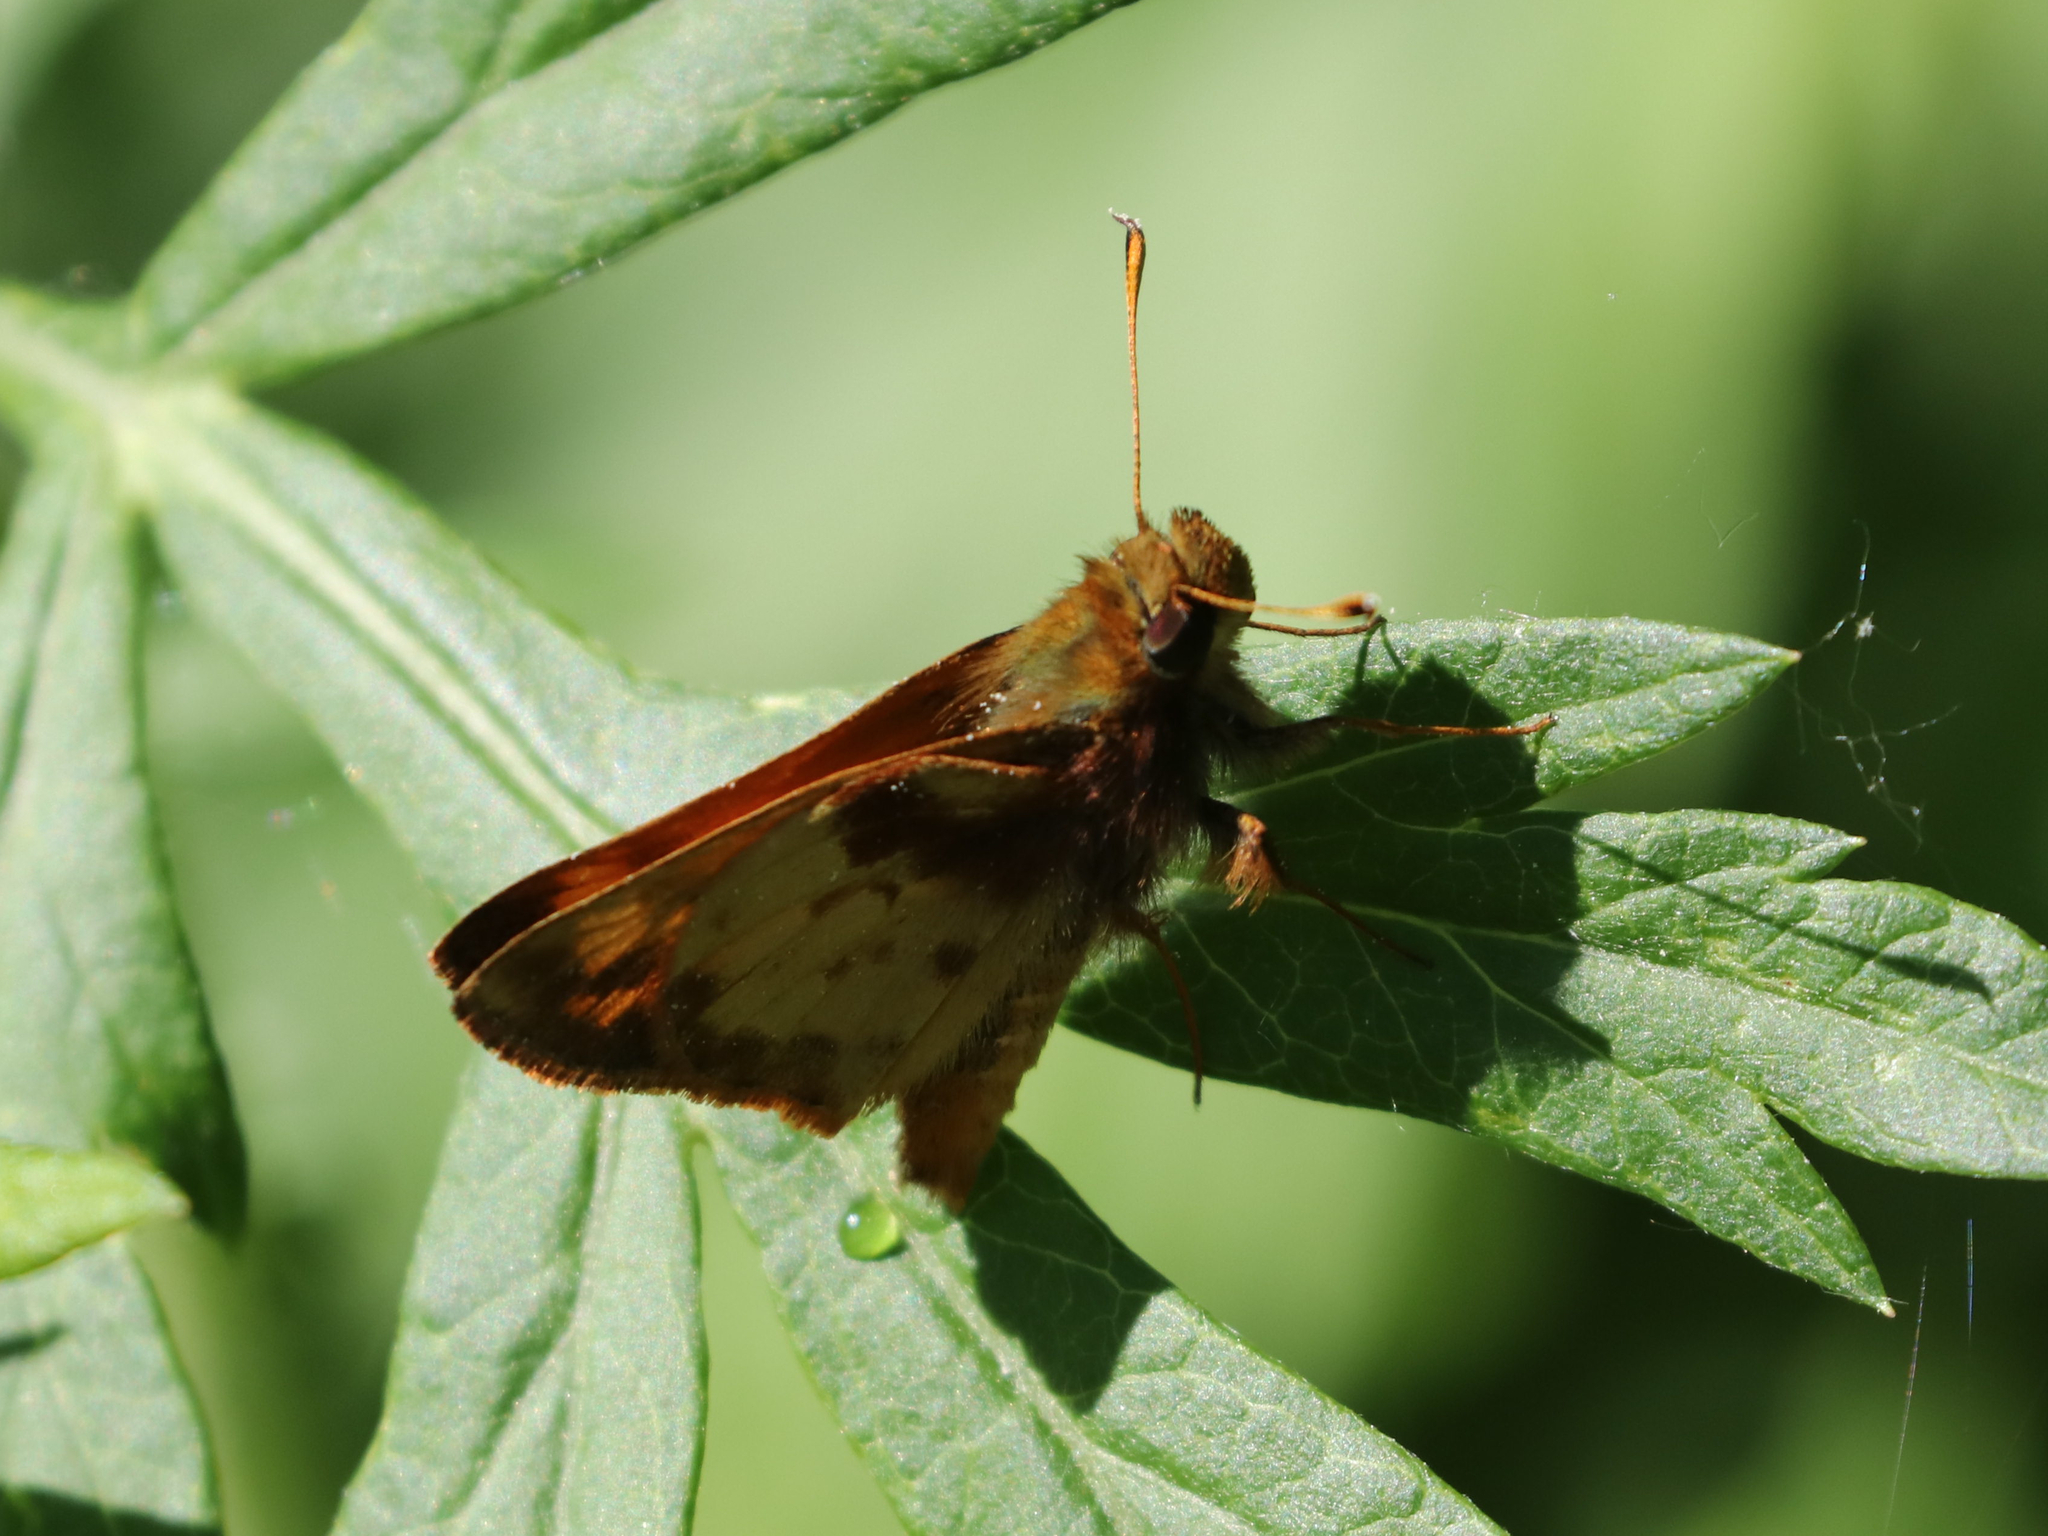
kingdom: Animalia
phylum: Arthropoda
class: Insecta
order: Lepidoptera
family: Hesperiidae
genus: Lon
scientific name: Lon zabulon
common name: Zabulon skipper
